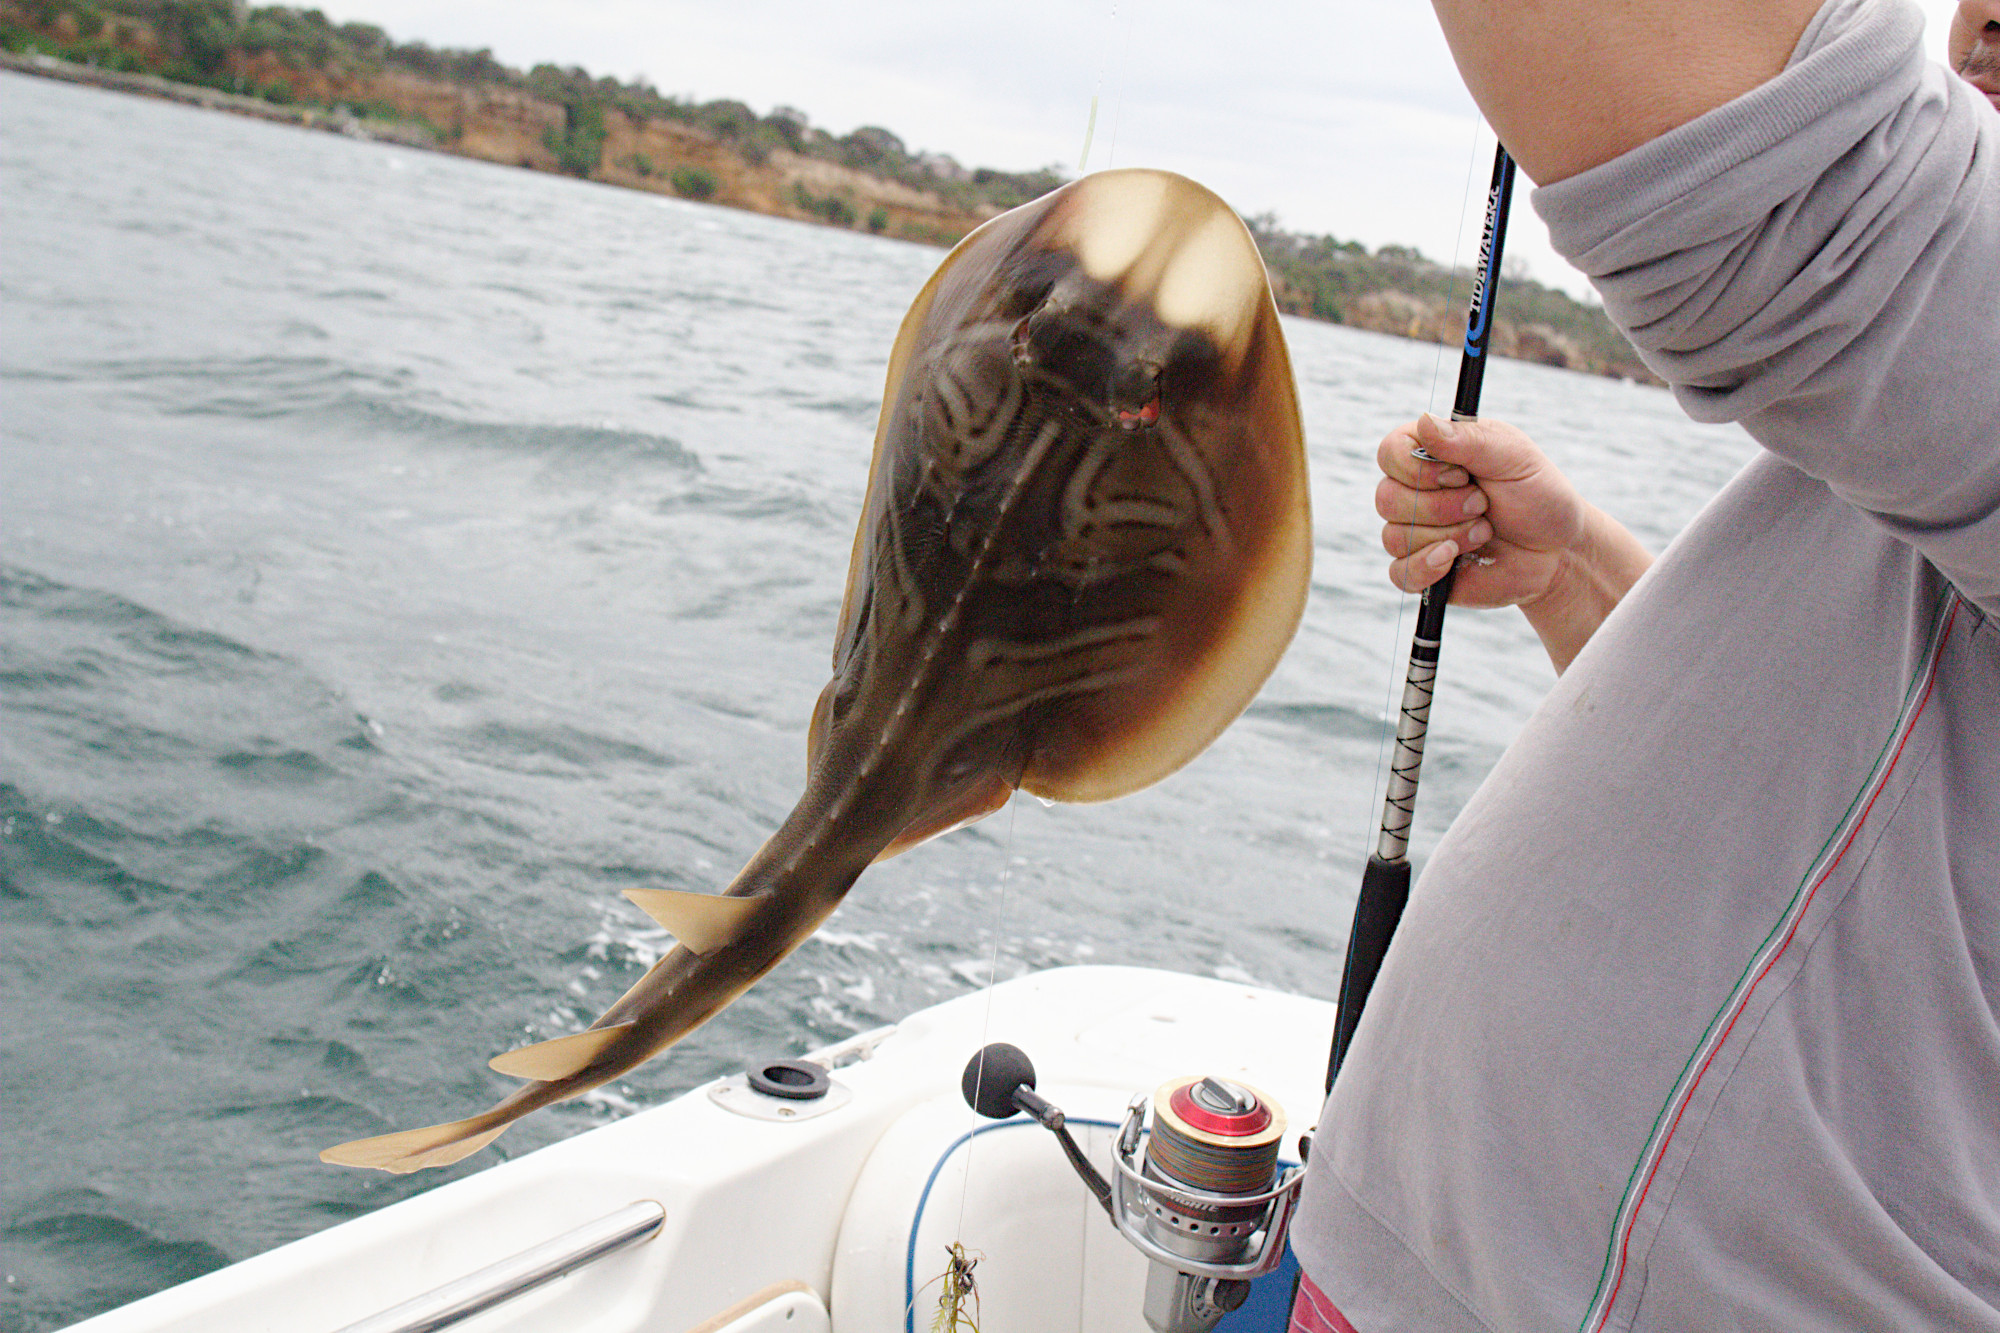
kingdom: Animalia
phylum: Chordata
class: Elasmobranchii
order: Rhinopristiformes
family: Rhinobatidae
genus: Trygonorrhina
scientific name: Trygonorrhina dumerilii
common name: Banjo shark
